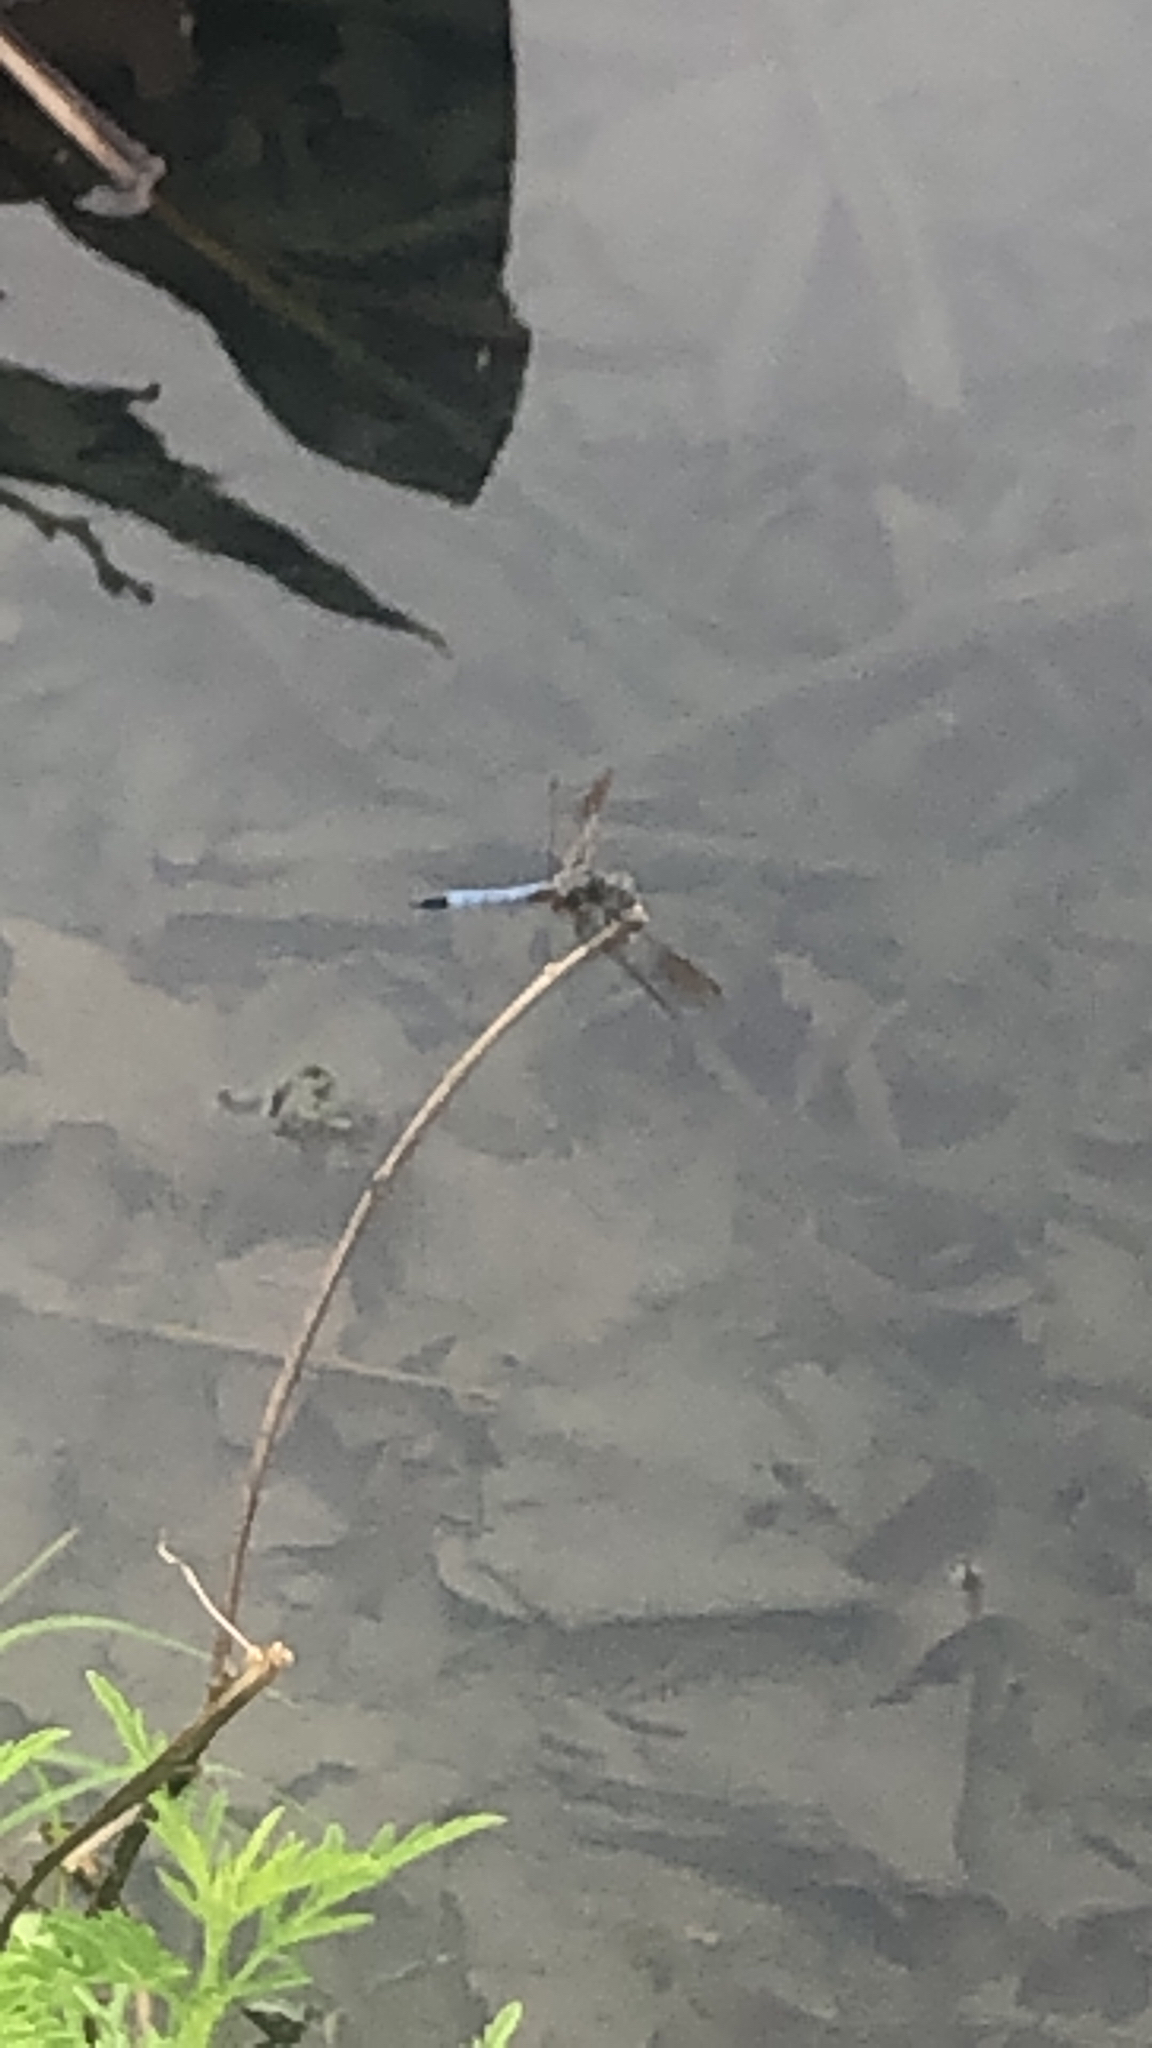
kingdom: Animalia
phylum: Arthropoda
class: Insecta
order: Odonata
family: Libellulidae
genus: Pachydiplax
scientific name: Pachydiplax longipennis
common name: Blue dasher
